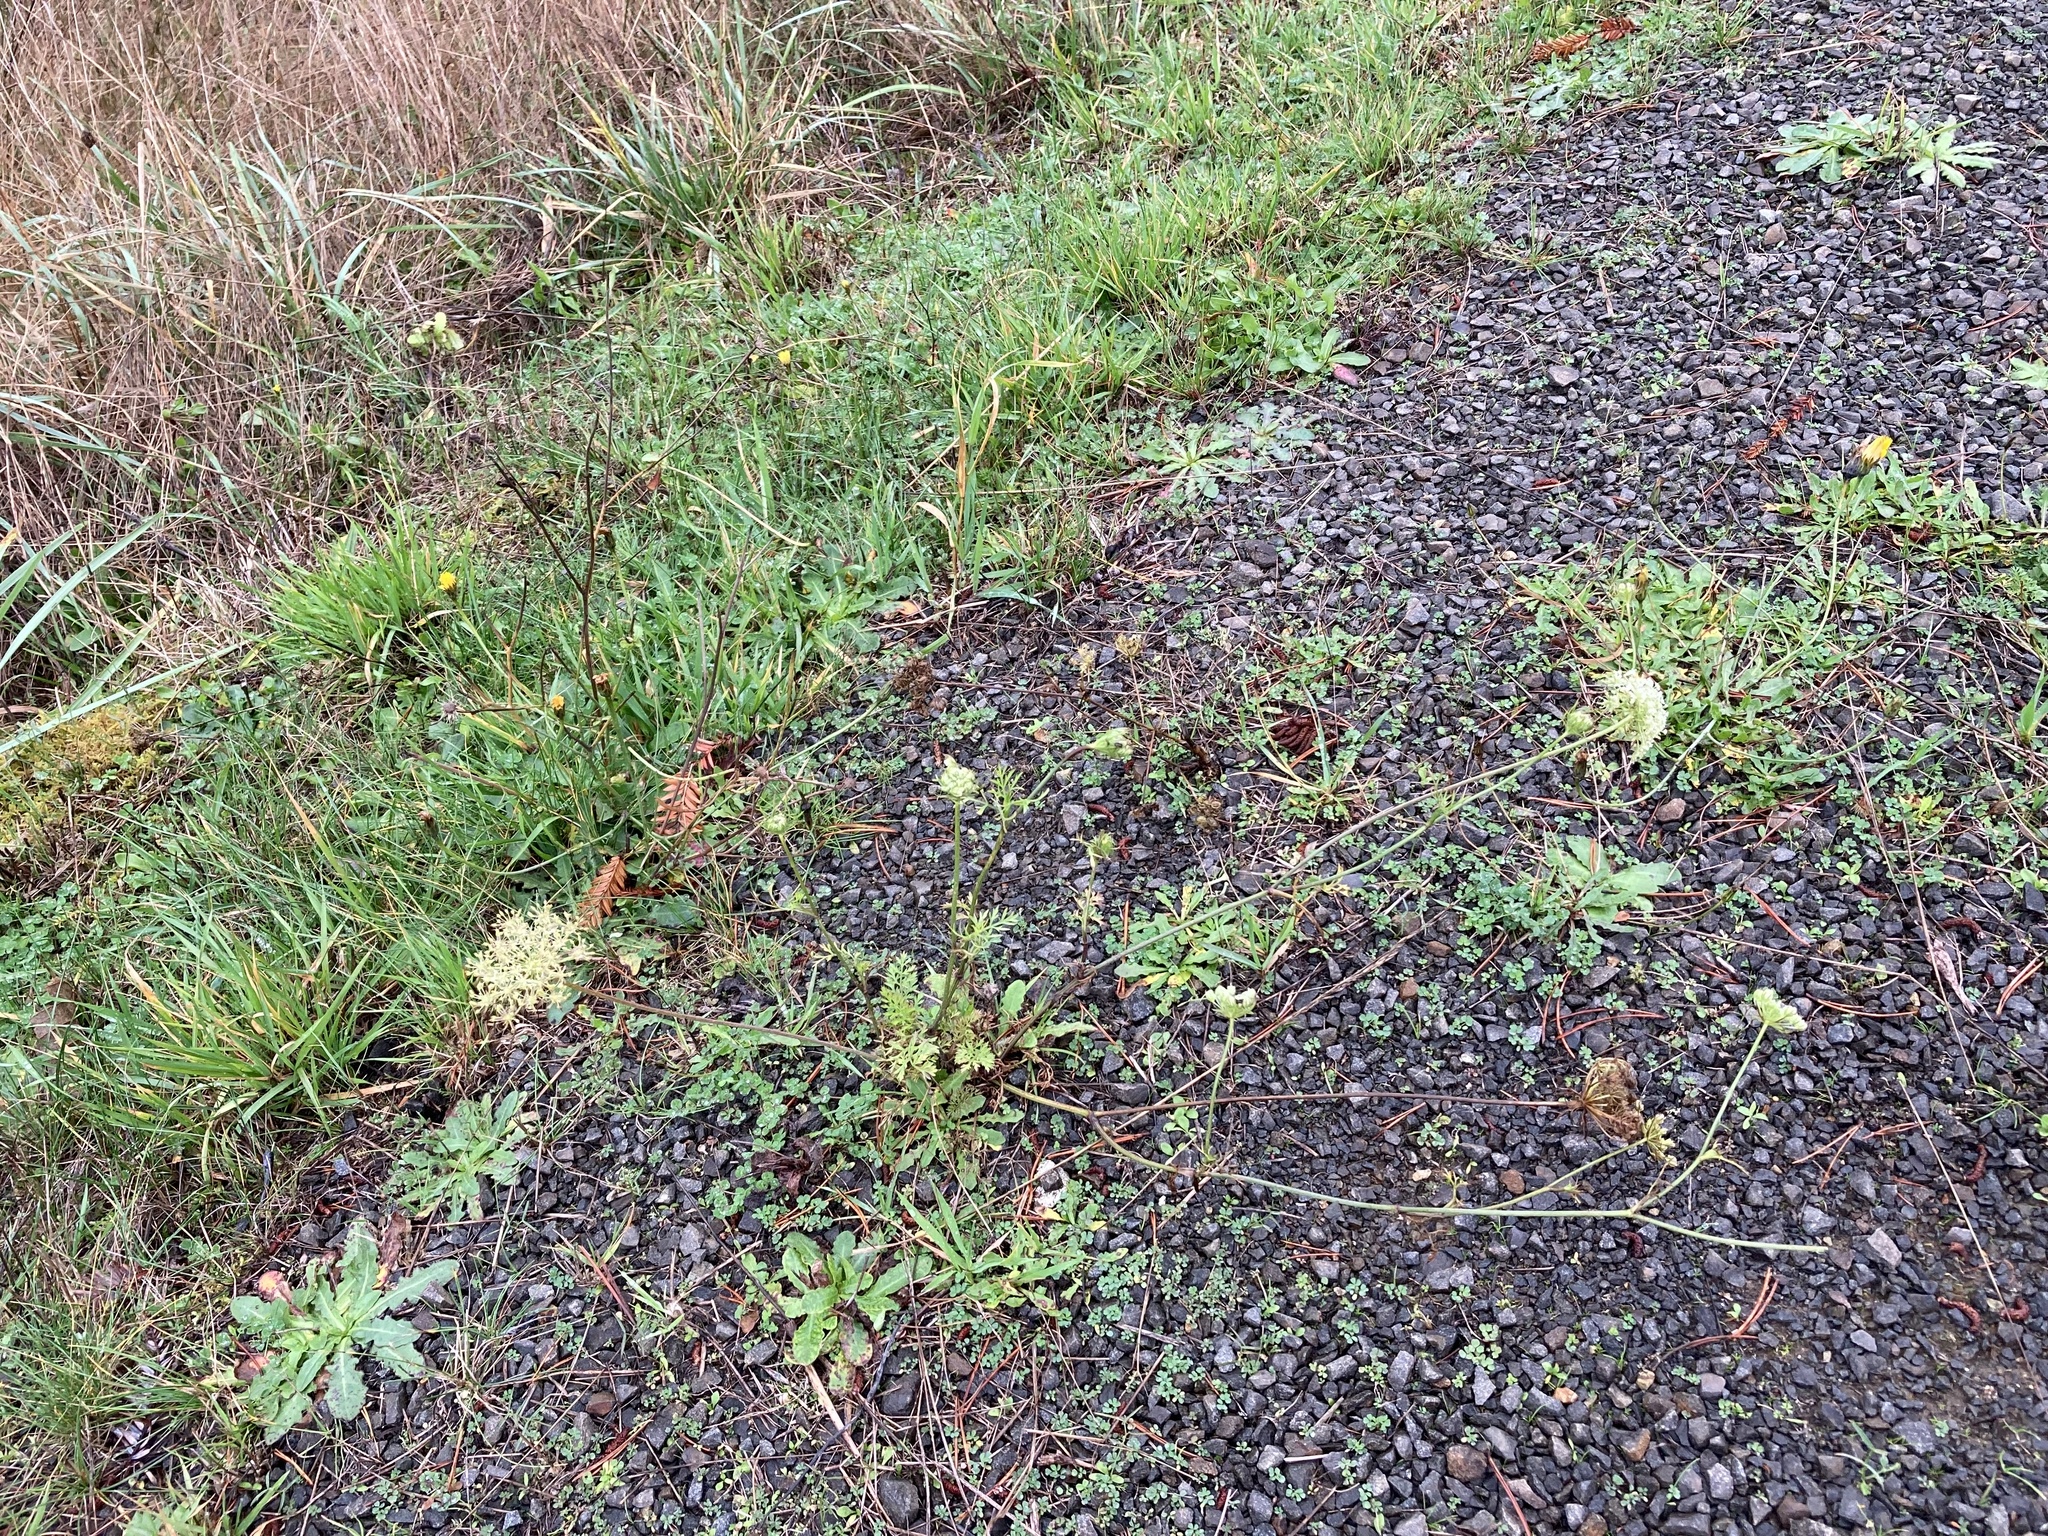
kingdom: Plantae
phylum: Tracheophyta
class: Magnoliopsida
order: Apiales
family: Apiaceae
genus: Daucus
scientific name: Daucus carota
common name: Wild carrot
